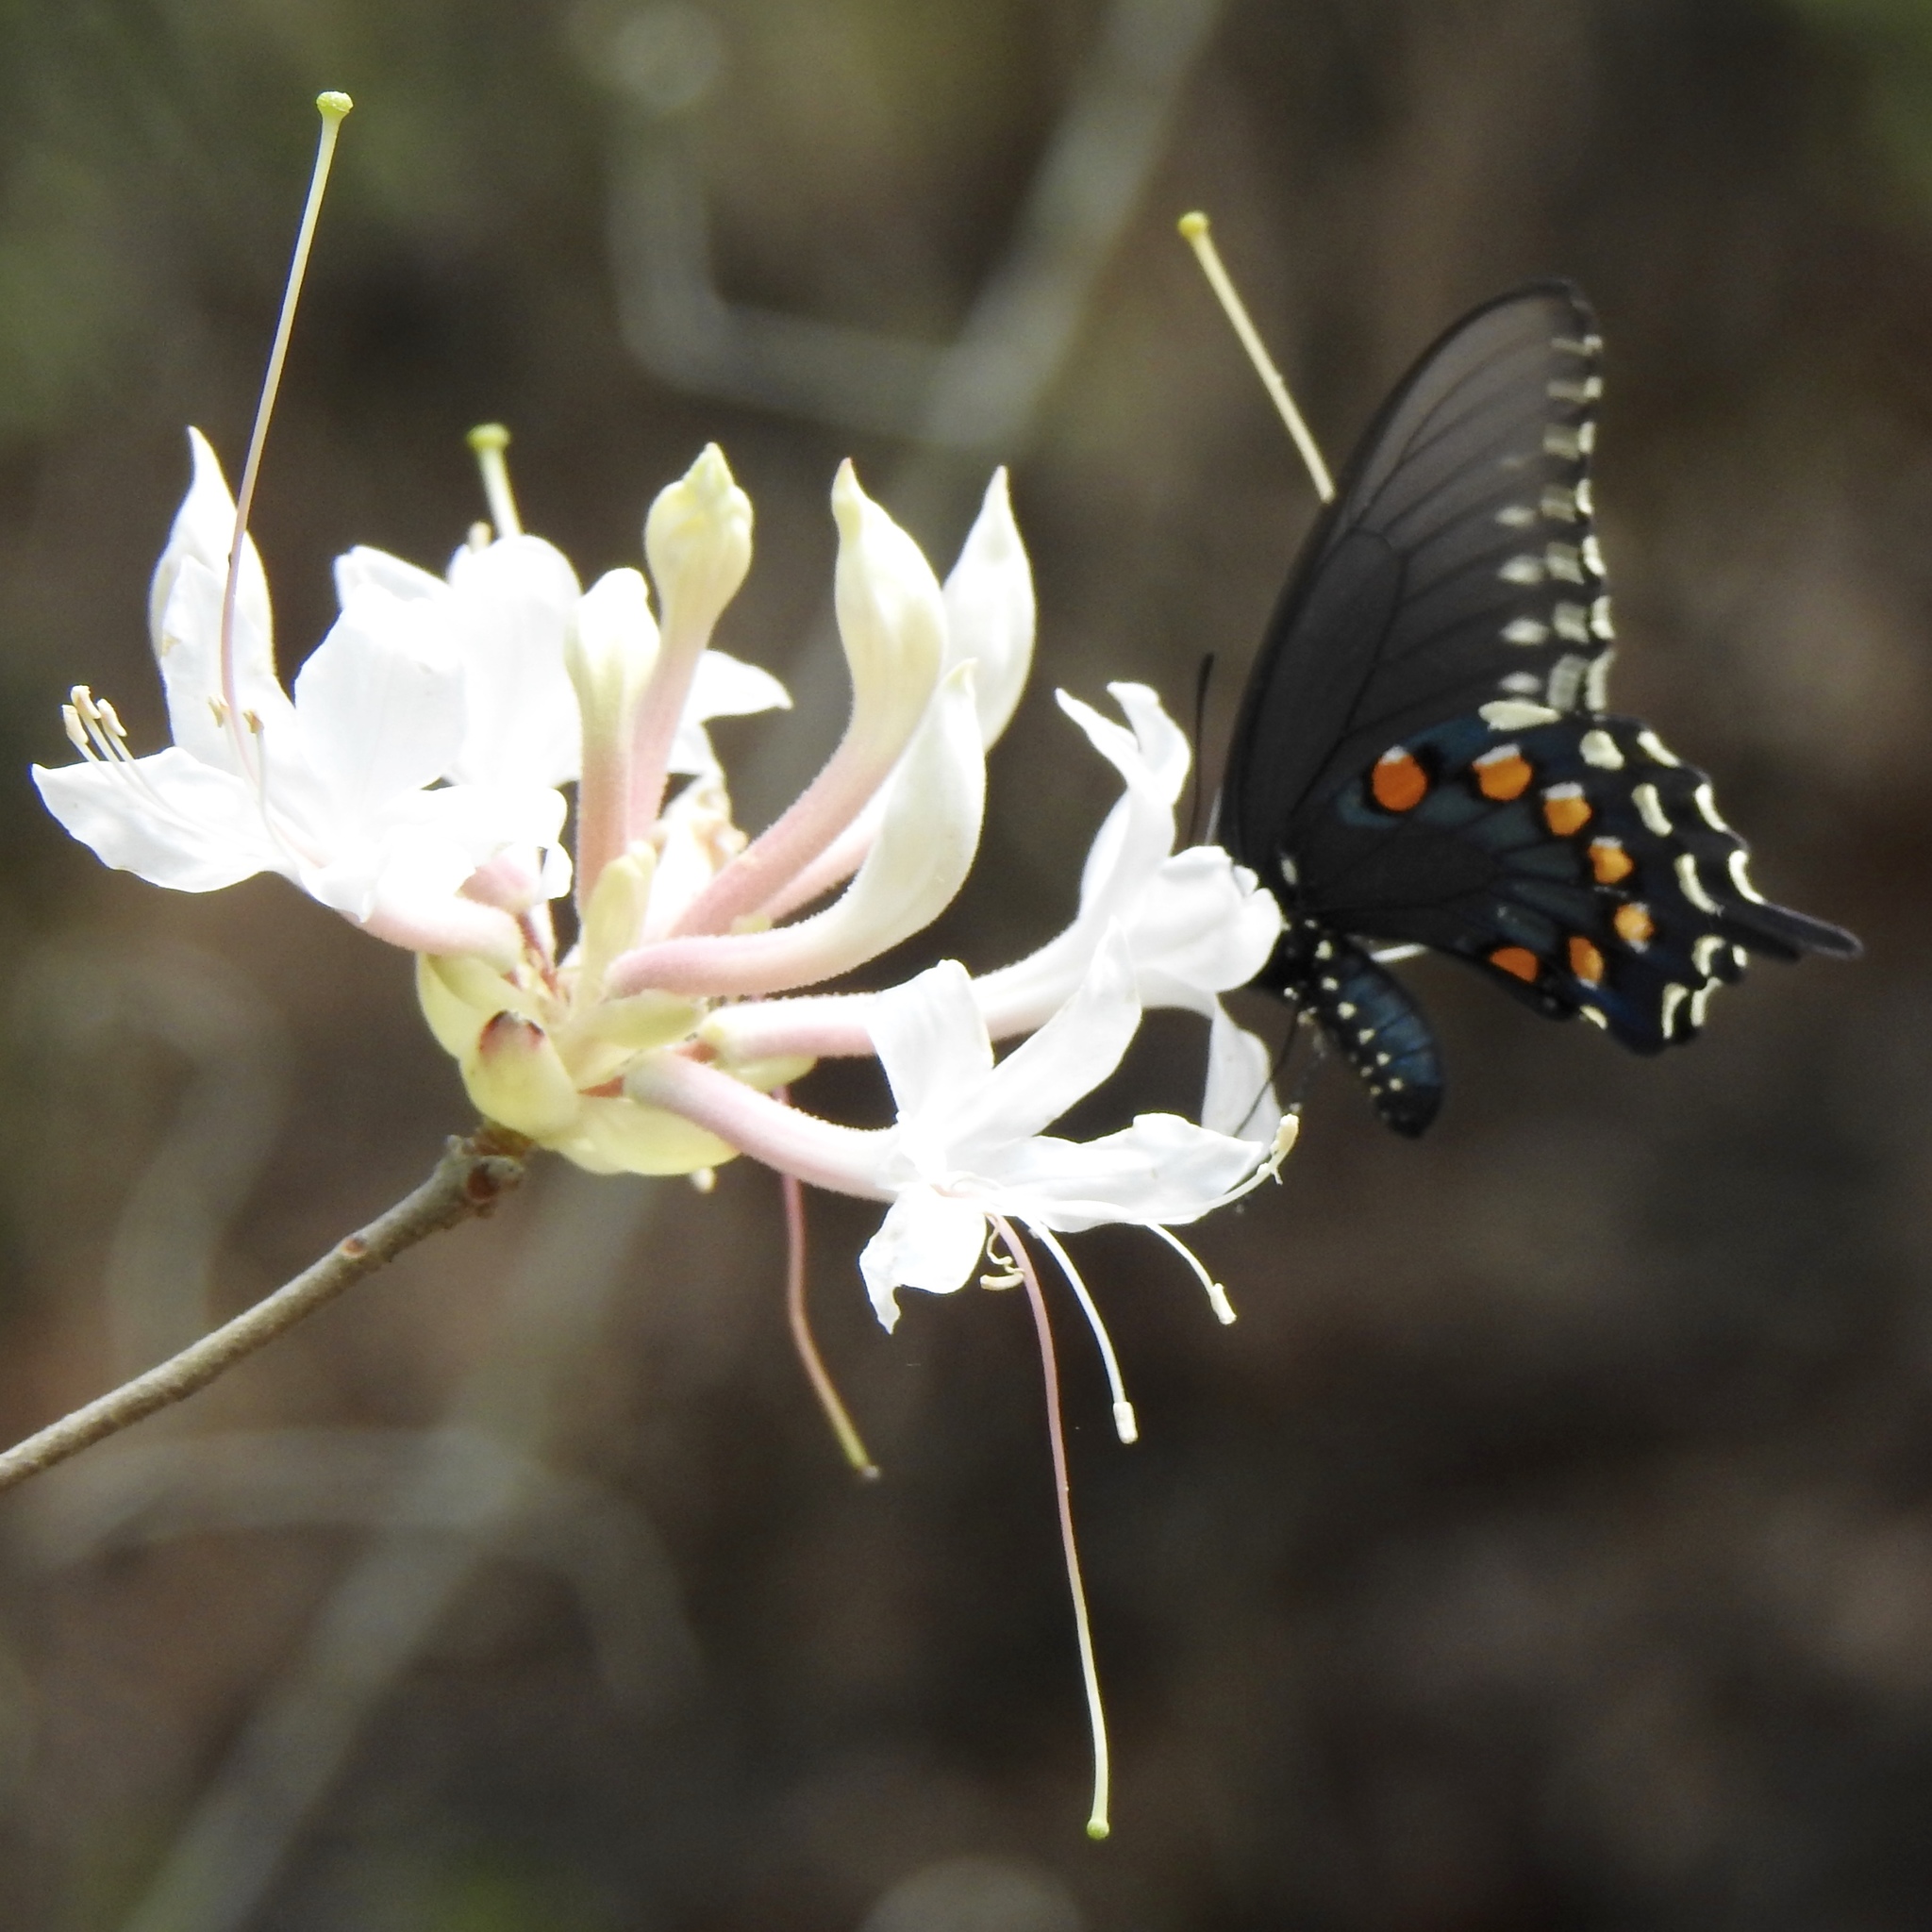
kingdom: Animalia
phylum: Arthropoda
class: Insecta
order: Lepidoptera
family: Papilionidae
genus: Battus
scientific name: Battus philenor
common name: Pipevine swallowtail
